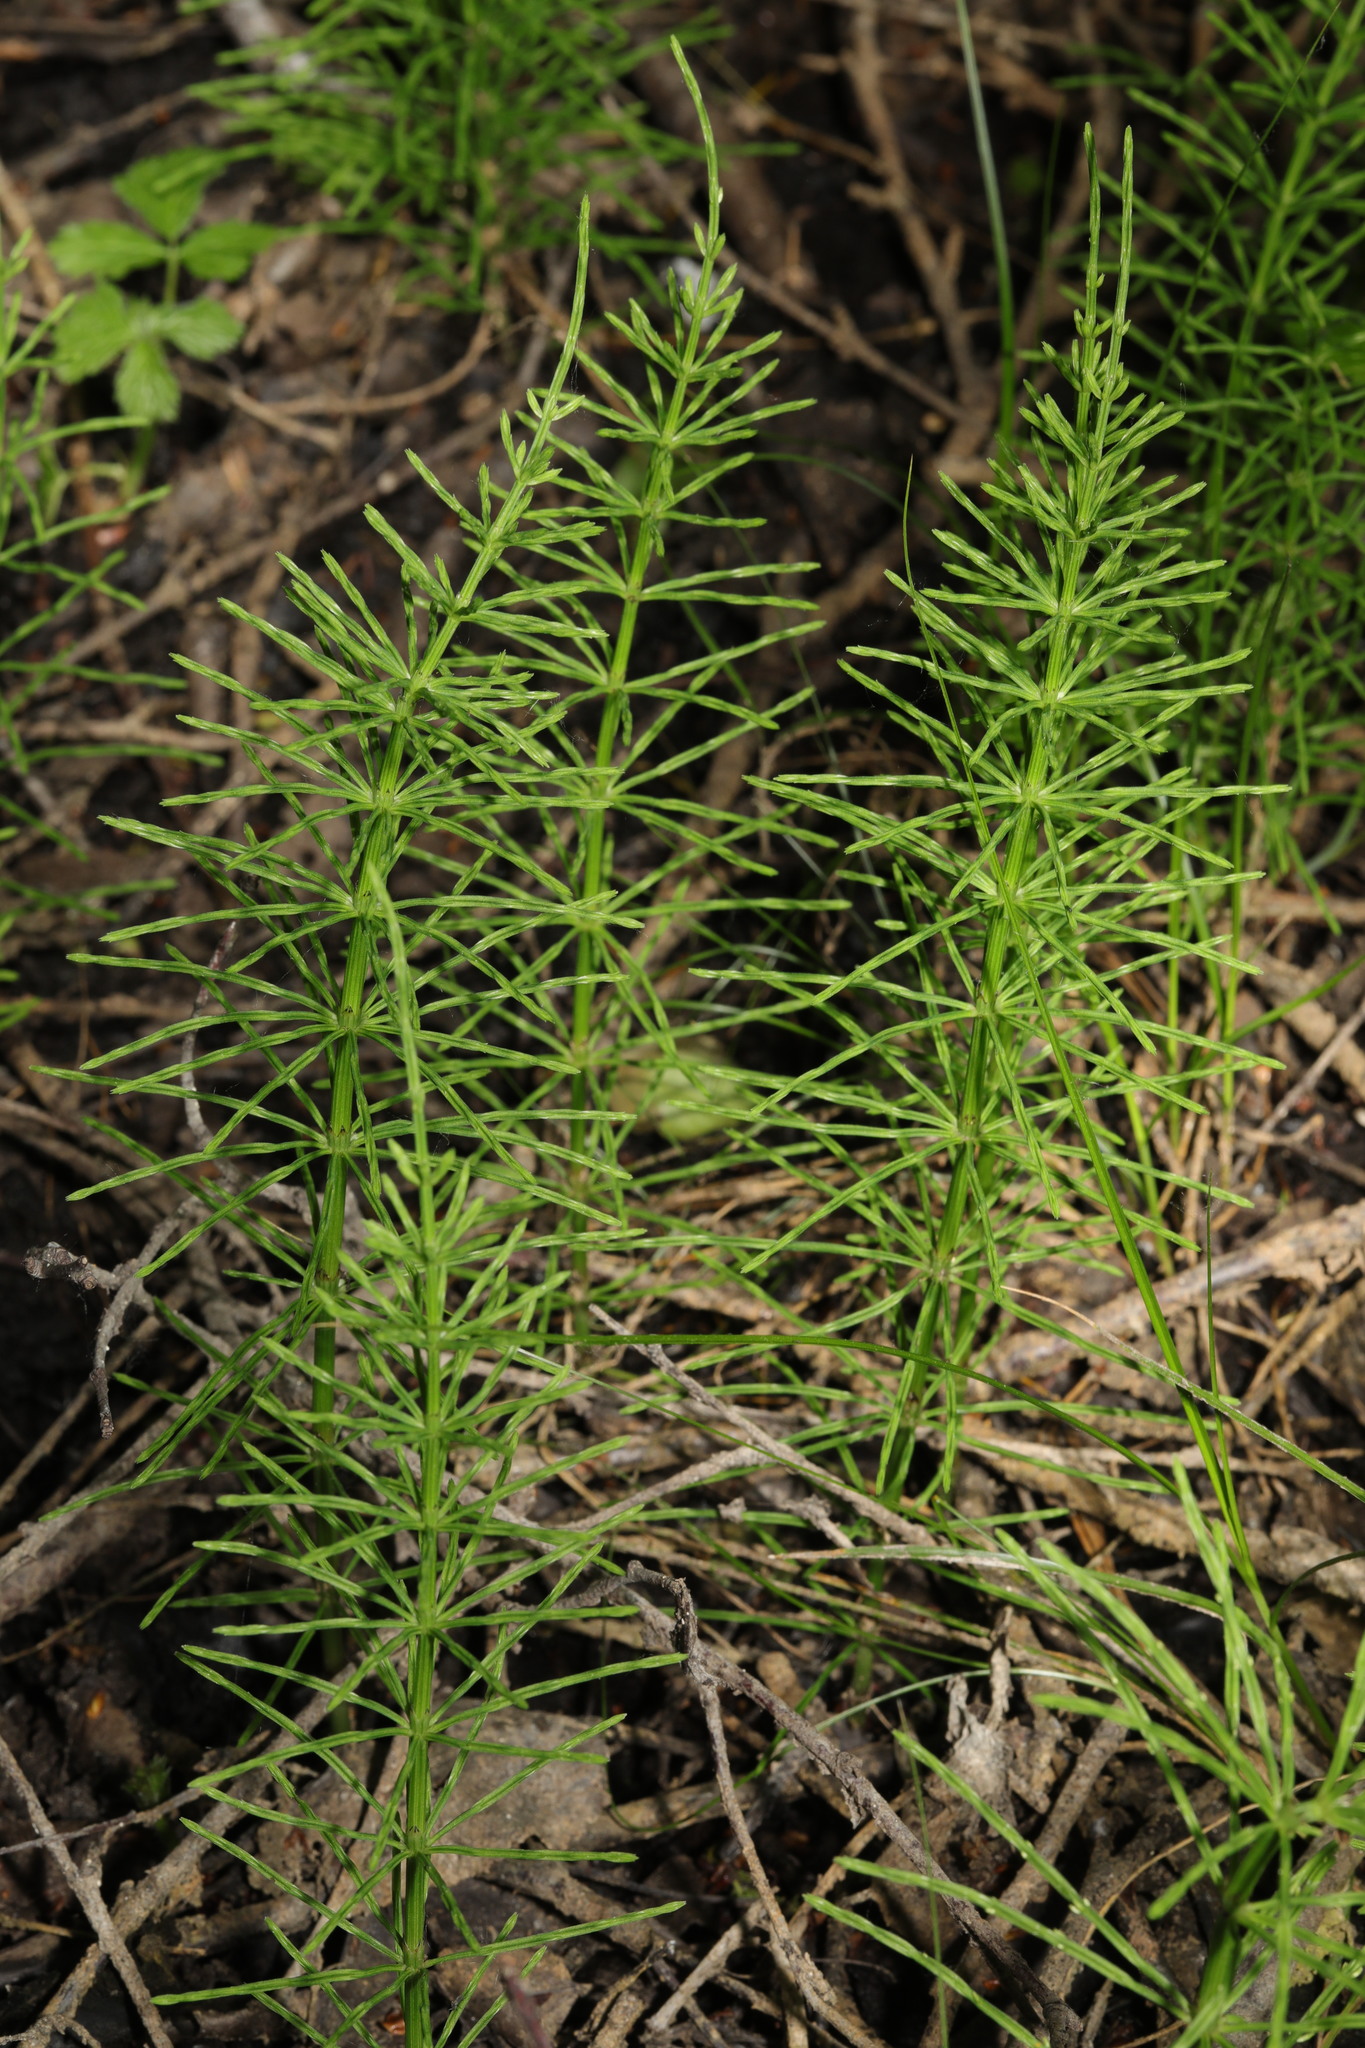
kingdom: Plantae
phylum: Tracheophyta
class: Polypodiopsida
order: Equisetales
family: Equisetaceae
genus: Equisetum
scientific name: Equisetum arvense
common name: Field horsetail
